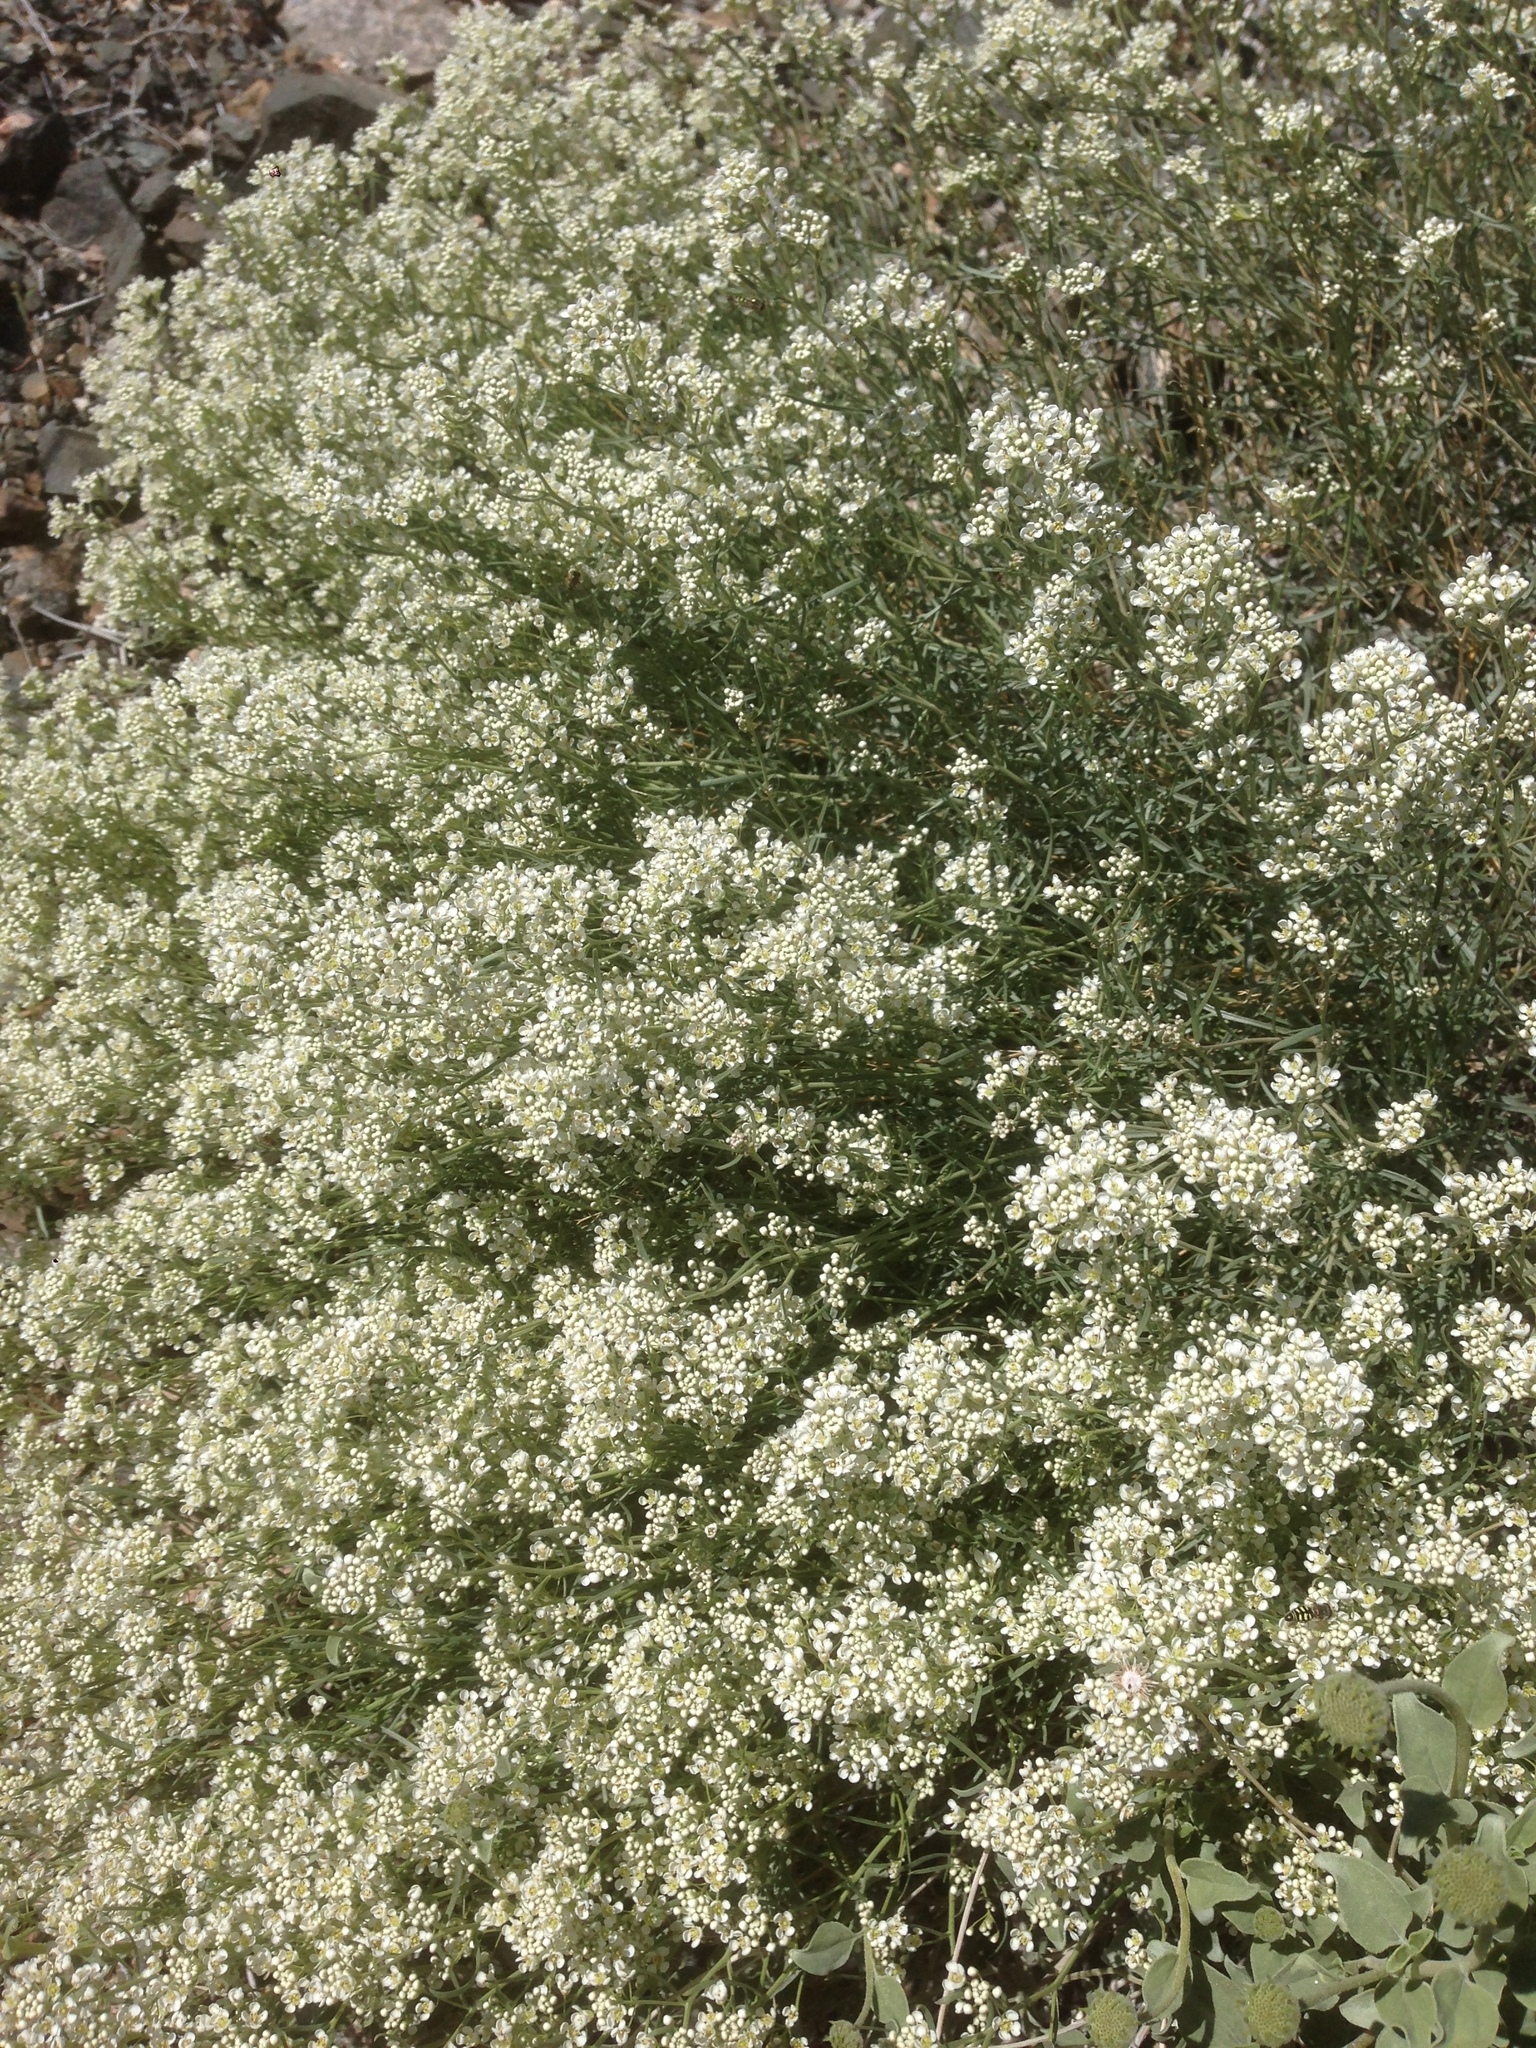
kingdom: Plantae
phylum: Tracheophyta
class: Magnoliopsida
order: Brassicales
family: Brassicaceae
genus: Lepidium
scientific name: Lepidium fremontii
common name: Fremont's pepperwort
